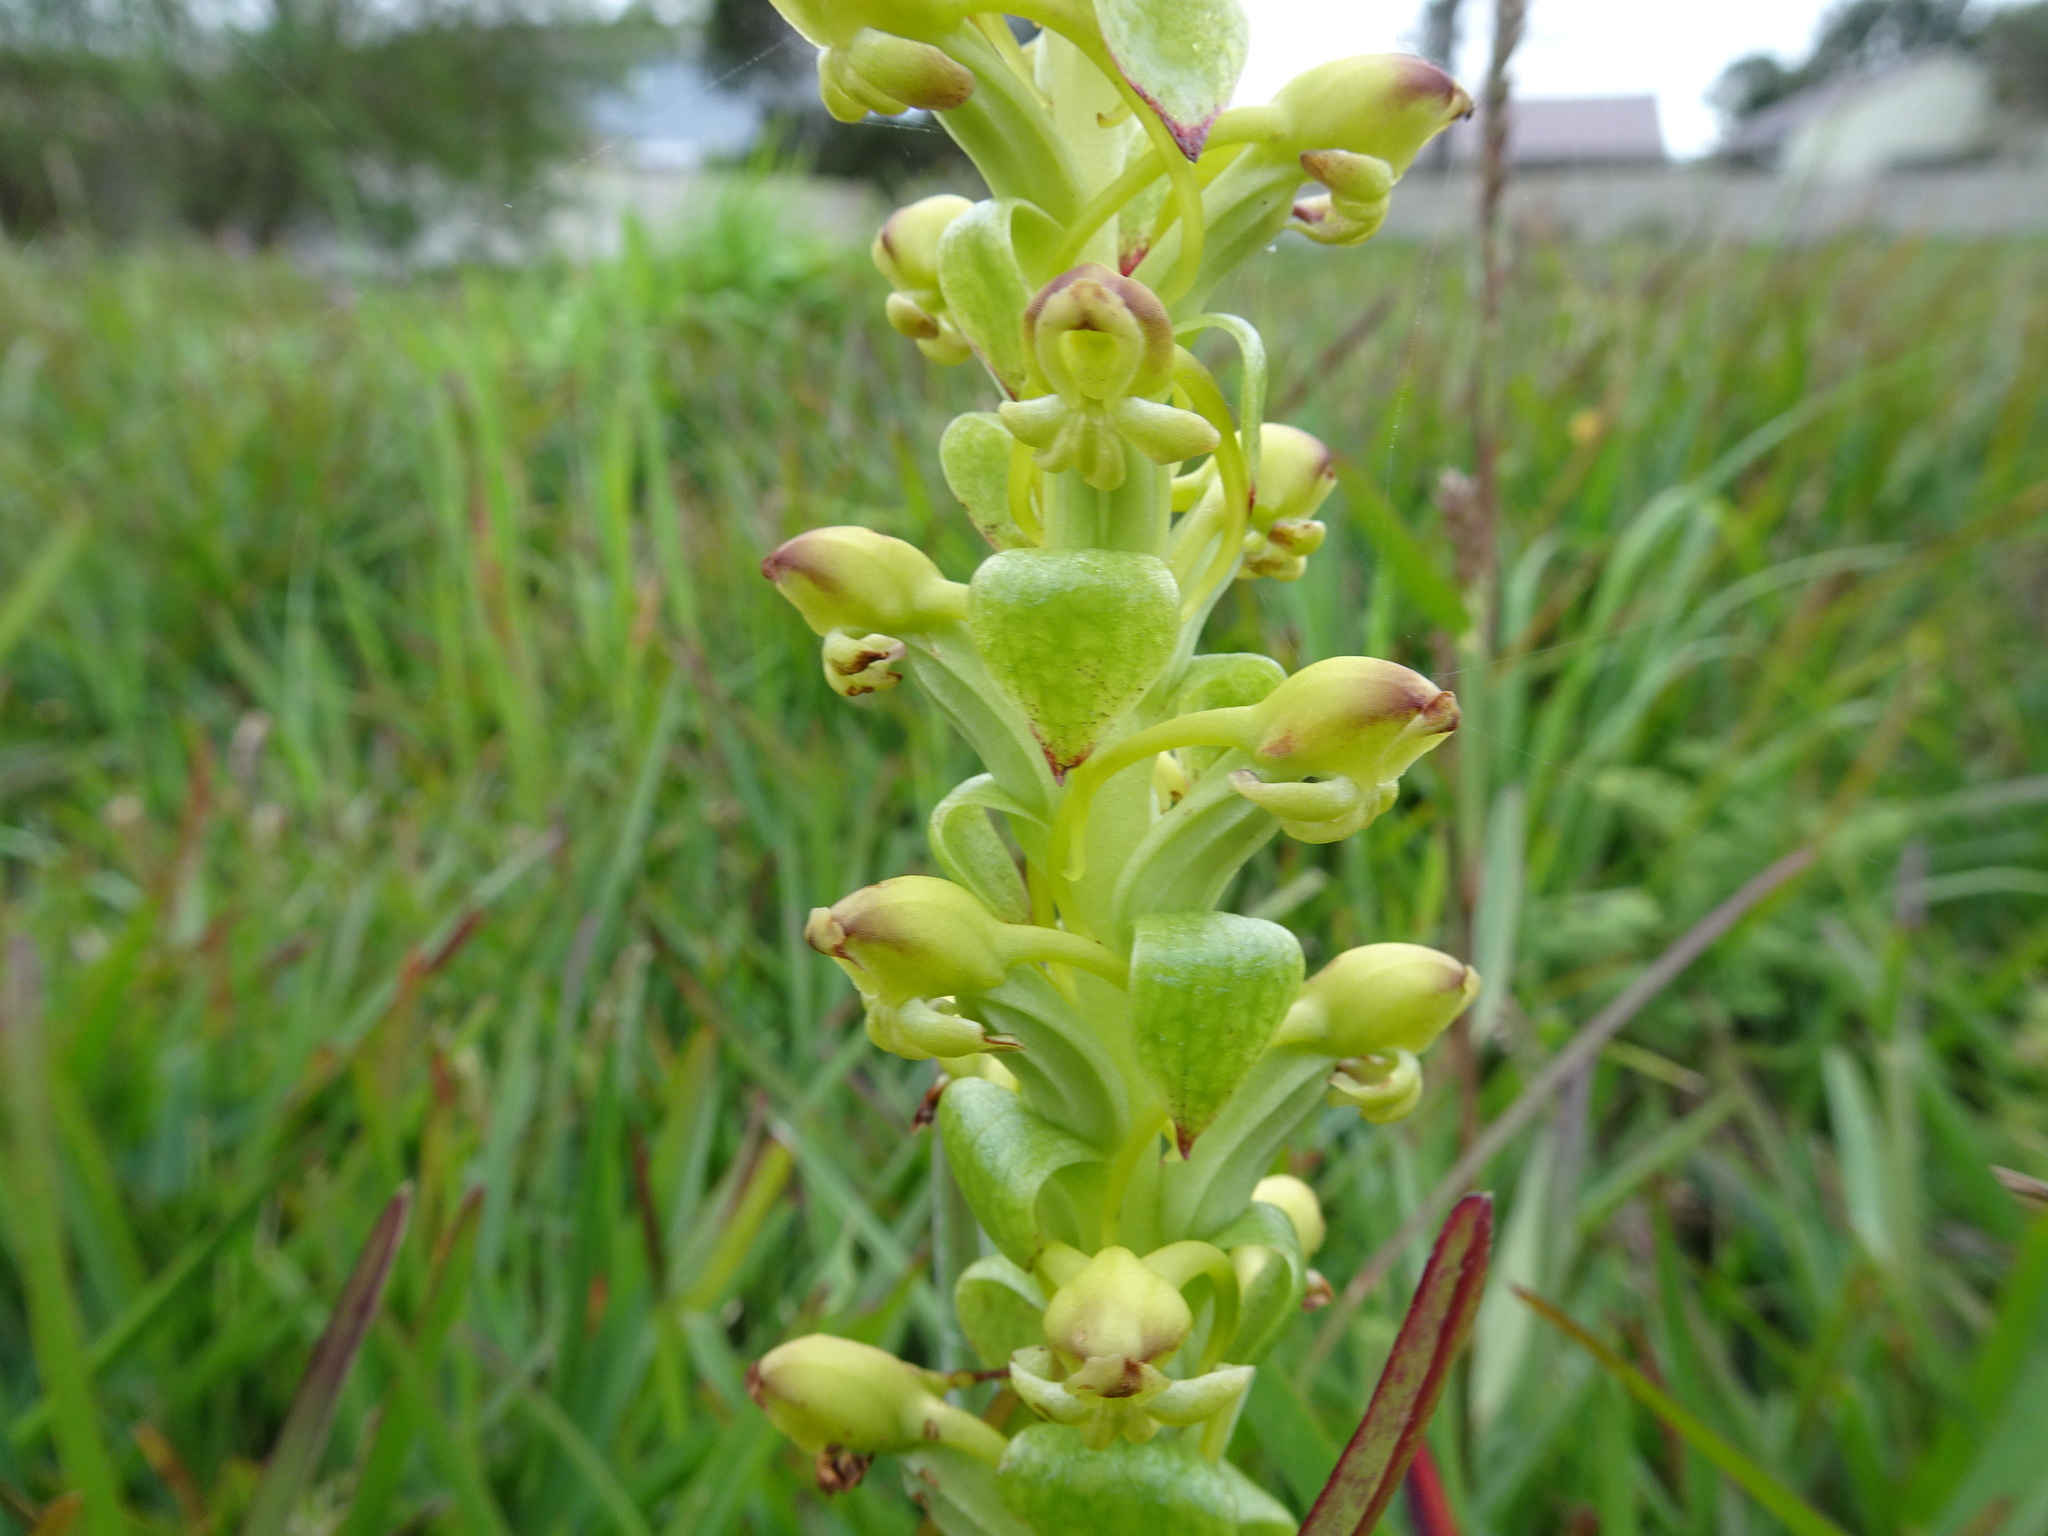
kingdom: Plantae
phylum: Tracheophyta
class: Liliopsida
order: Asparagales
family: Orchidaceae
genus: Satyrium
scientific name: Satyrium odorum
